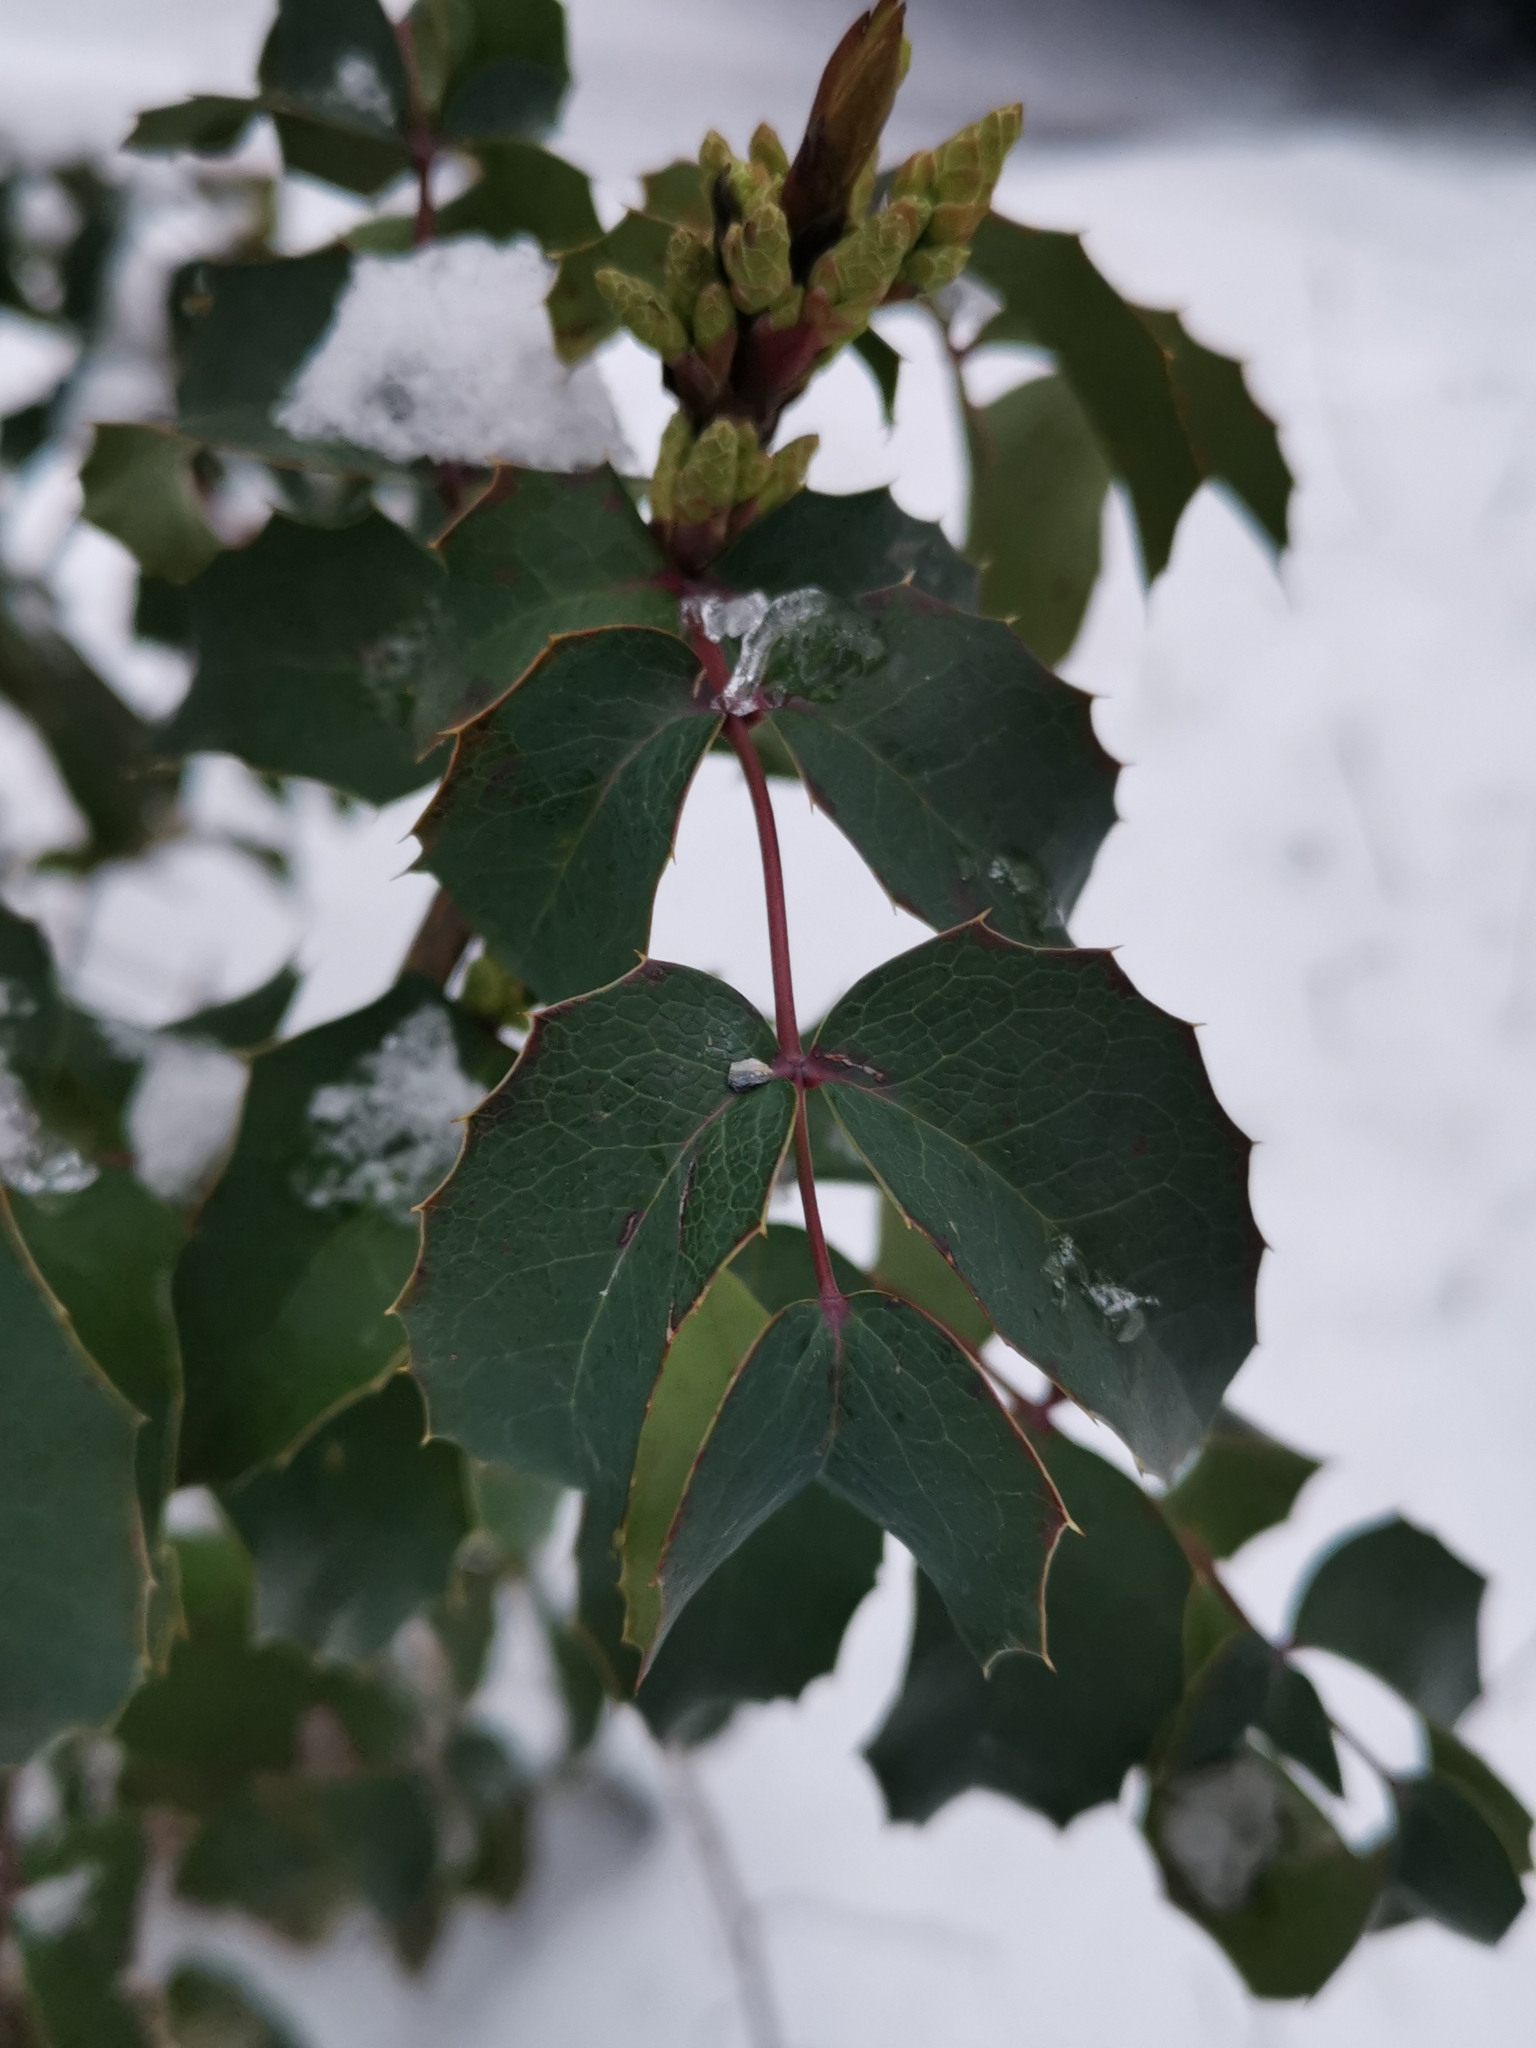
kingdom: Plantae
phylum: Tracheophyta
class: Magnoliopsida
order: Ranunculales
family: Berberidaceae
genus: Mahonia
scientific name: Mahonia aquifolium
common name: Oregon-grape
